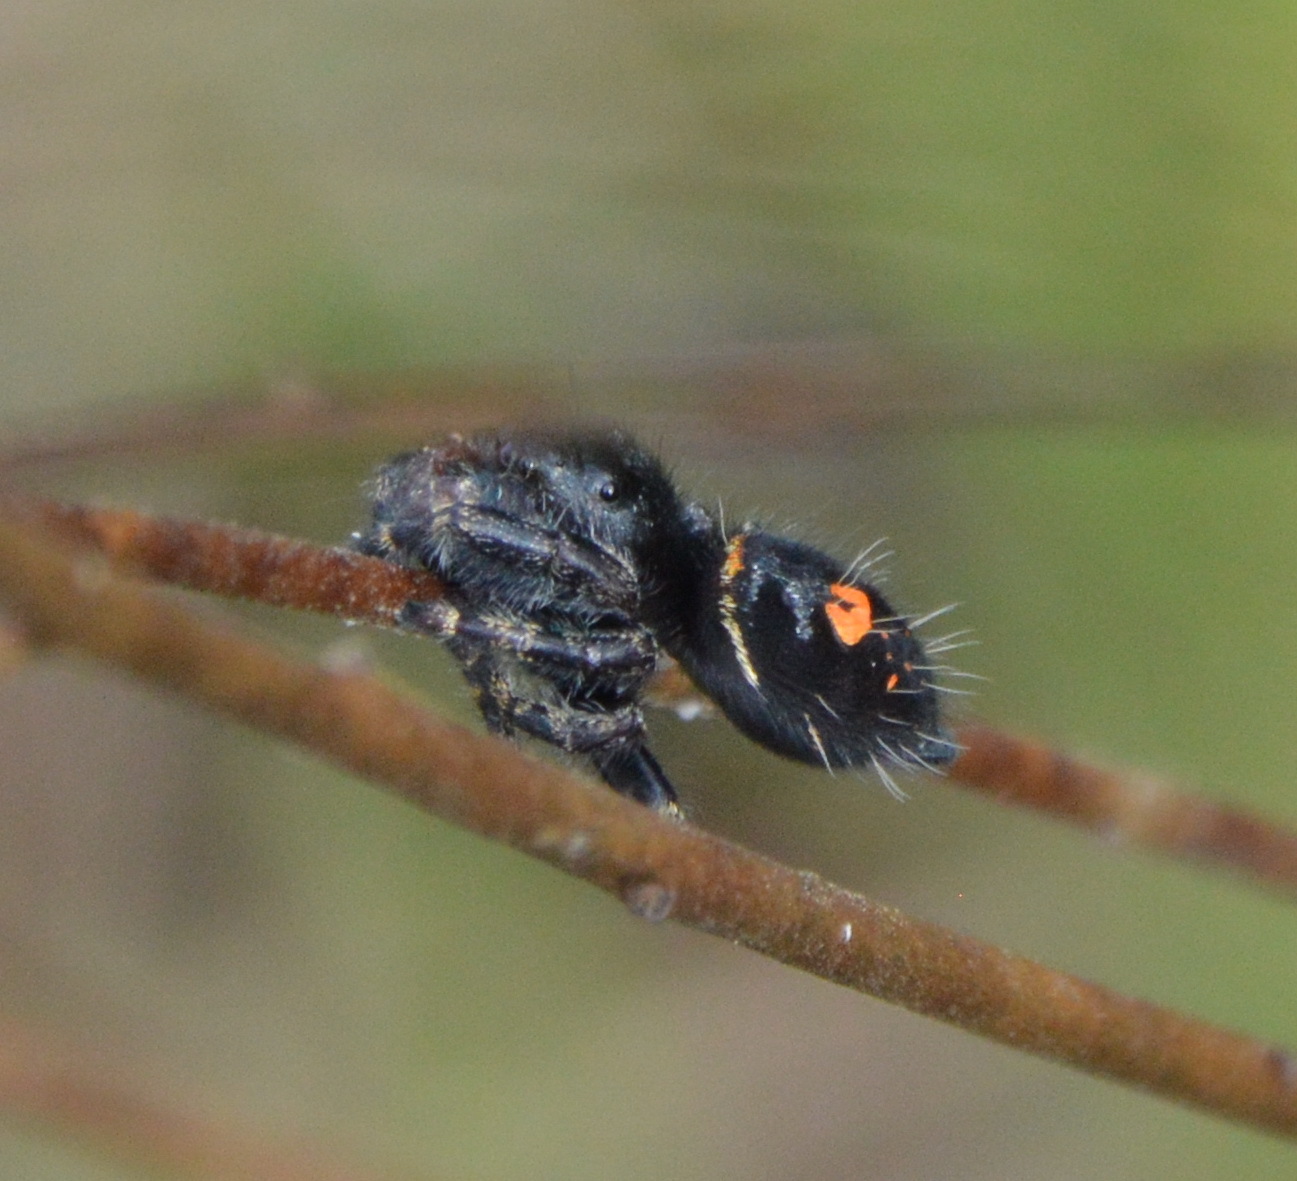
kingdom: Animalia
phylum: Arthropoda
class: Arachnida
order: Araneae
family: Salticidae
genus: Phidippus
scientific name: Phidippus audax
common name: Bold jumper
